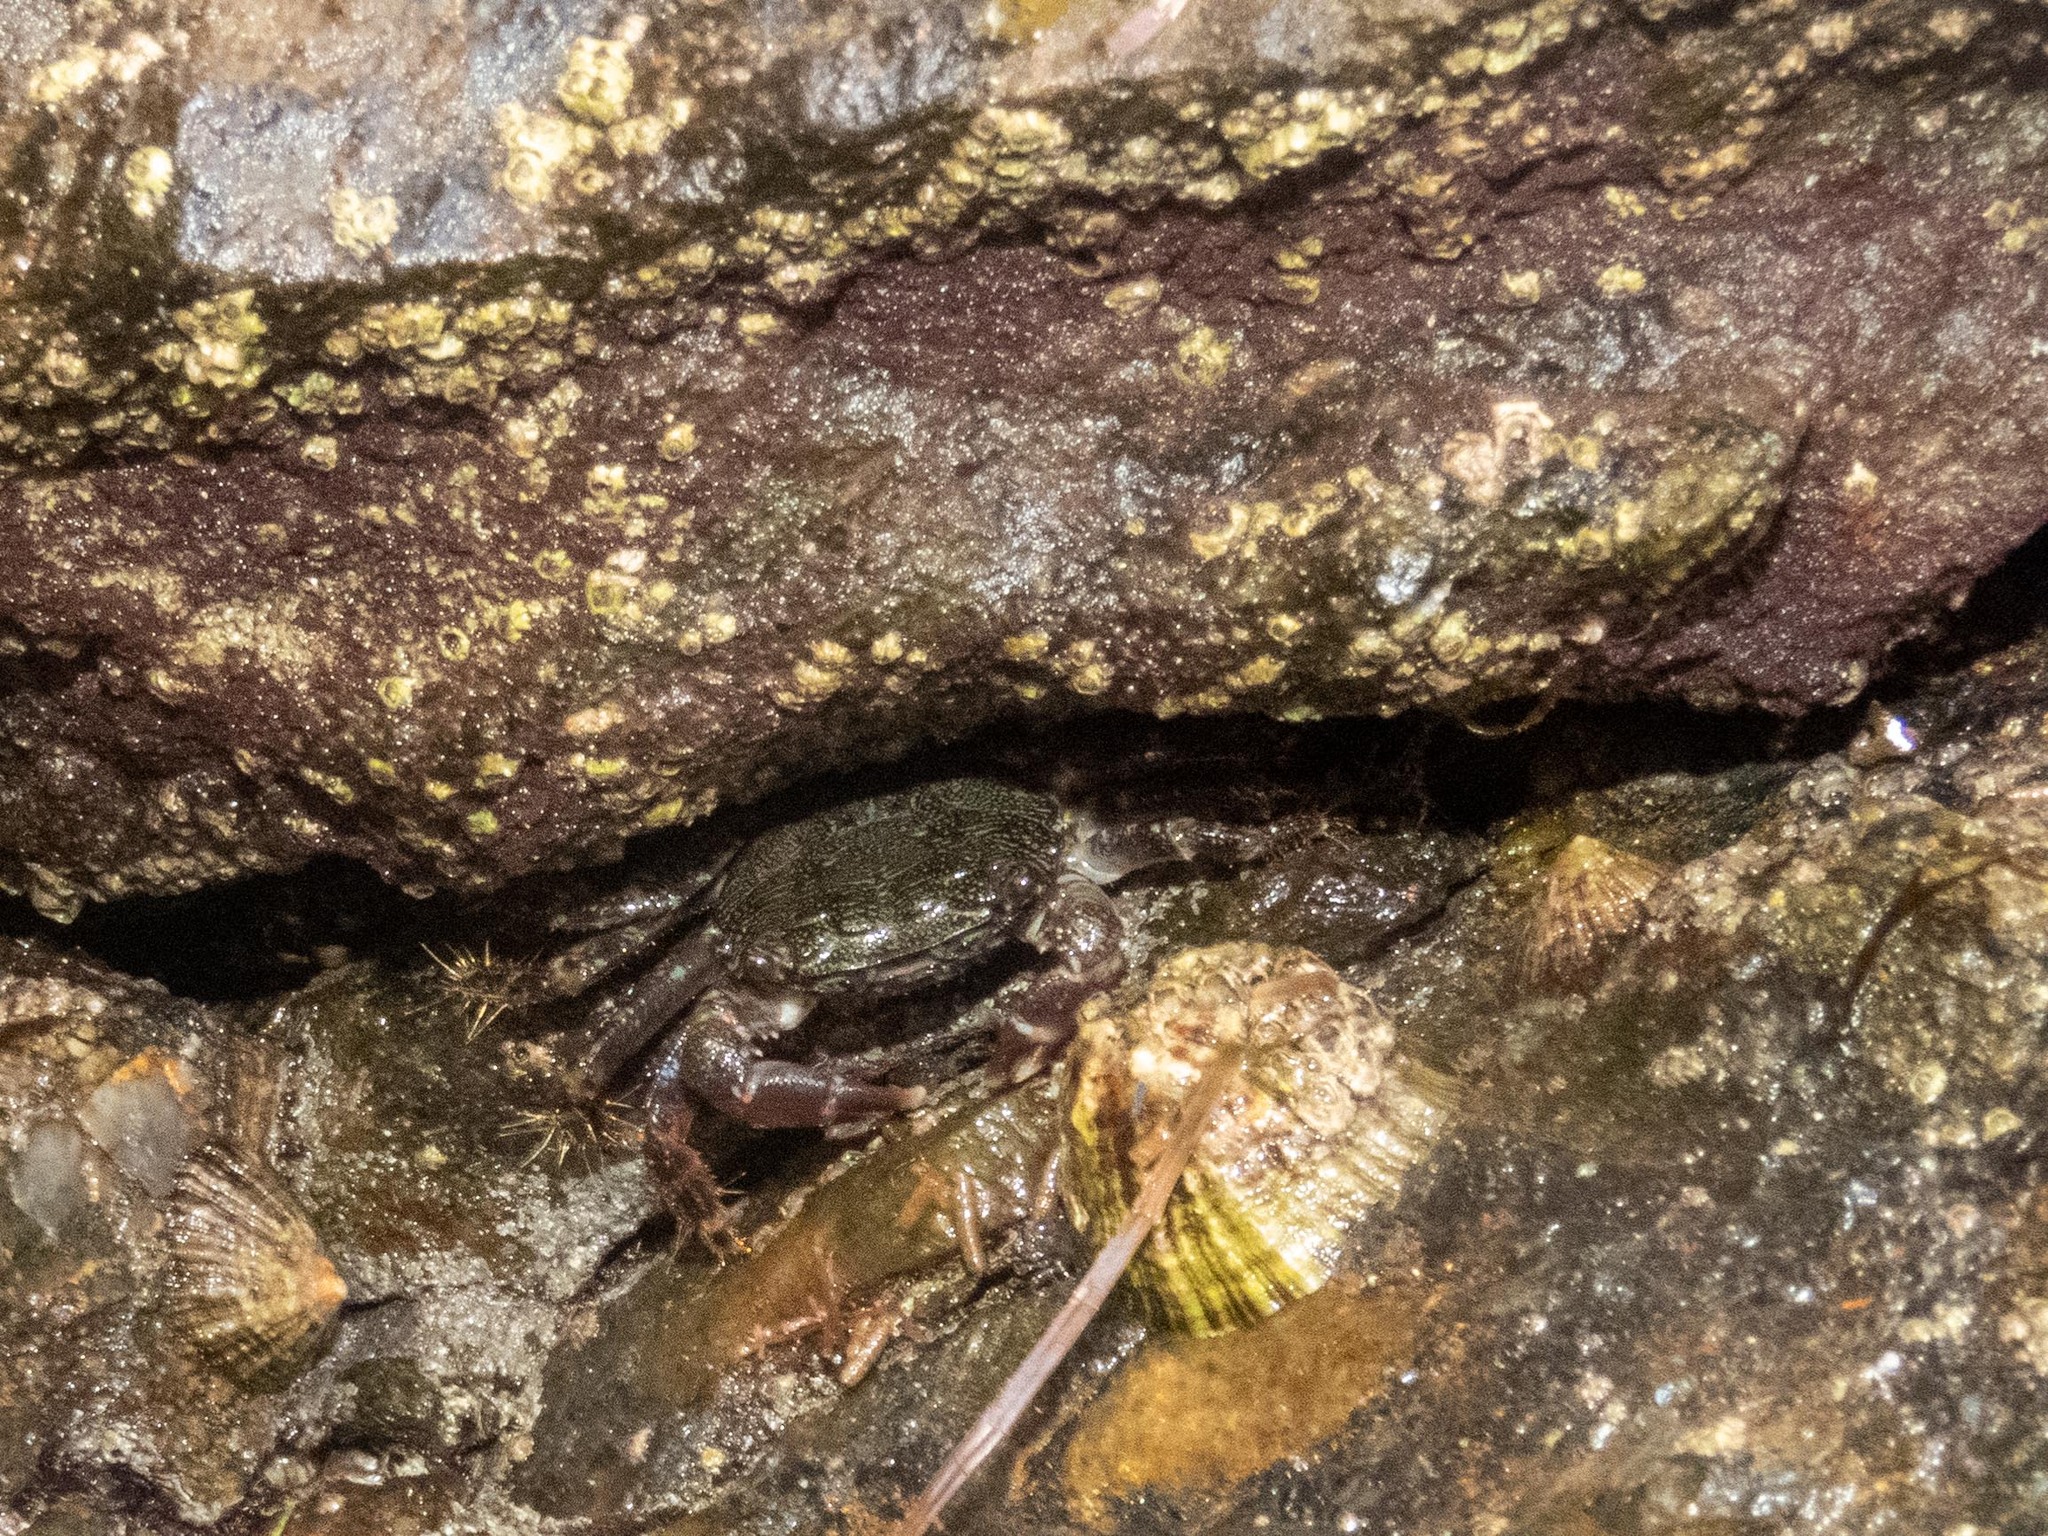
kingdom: Animalia
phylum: Arthropoda
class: Malacostraca
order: Decapoda
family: Grapsidae
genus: Pachygrapsus
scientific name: Pachygrapsus marmoratus
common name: Marbled rock crab
